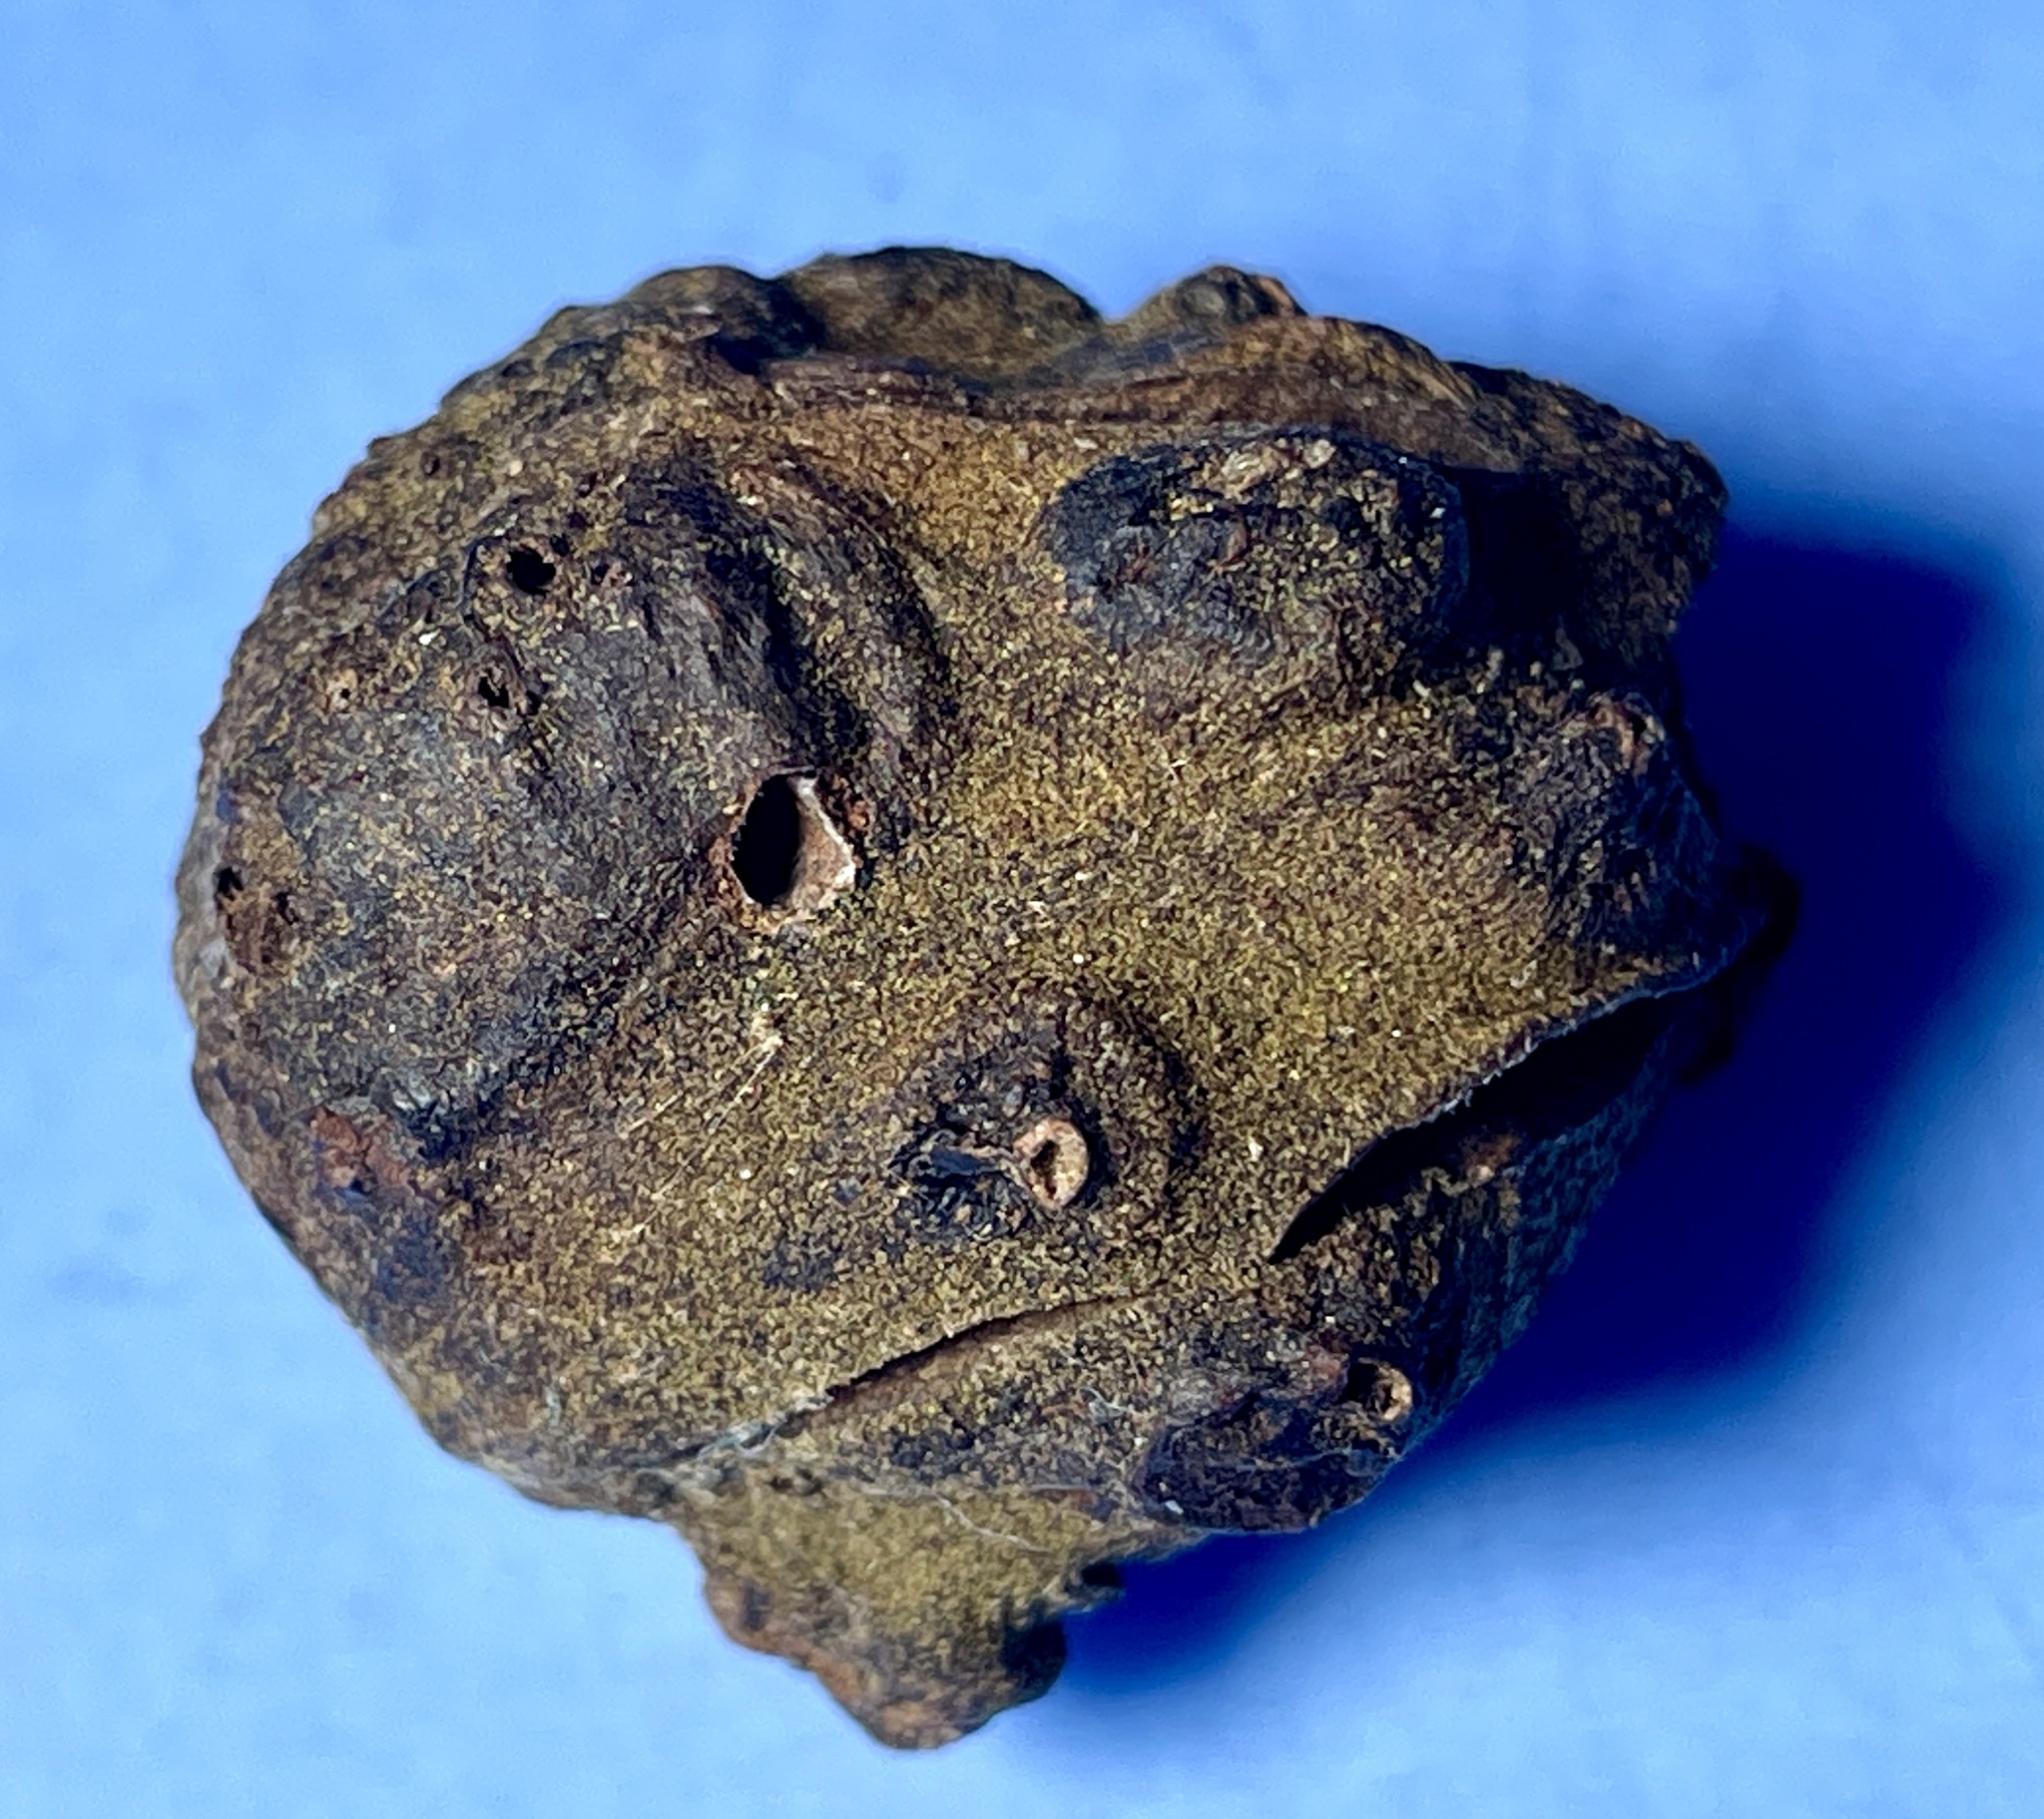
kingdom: Animalia
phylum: Arthropoda
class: Insecta
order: Diptera
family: Cecidomyiidae
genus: Harmandiola
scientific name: Harmandiola nucicola
